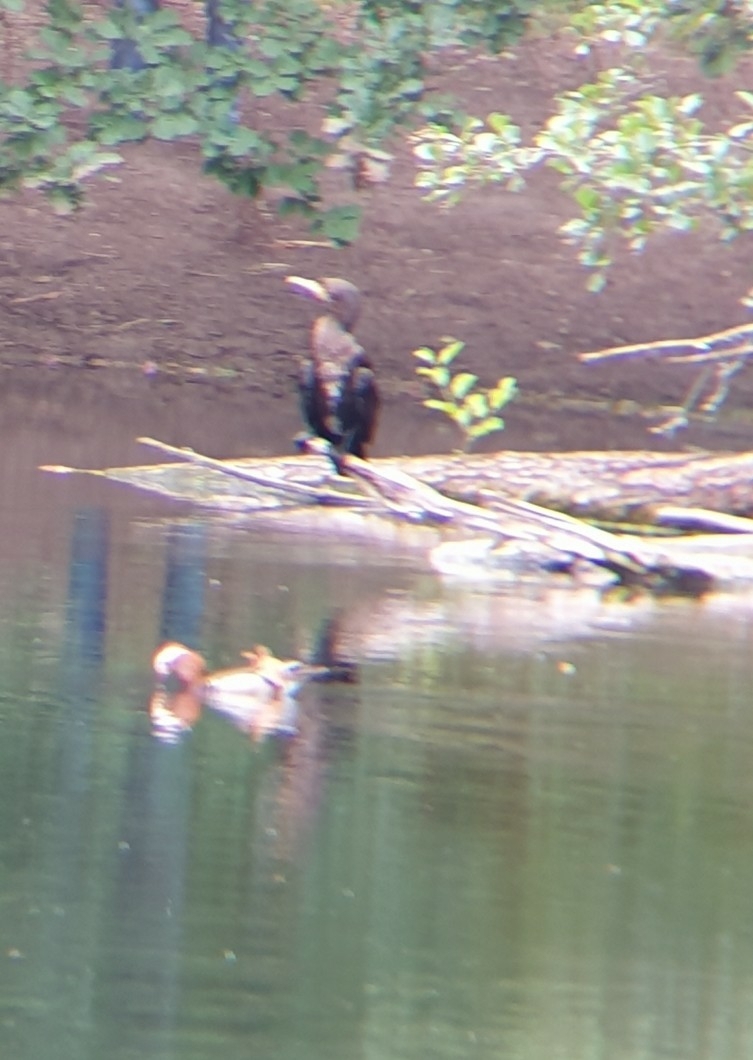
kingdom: Animalia
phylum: Chordata
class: Aves
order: Anseriformes
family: Anatidae
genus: Aix
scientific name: Aix galericulata
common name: Mandarin duck
